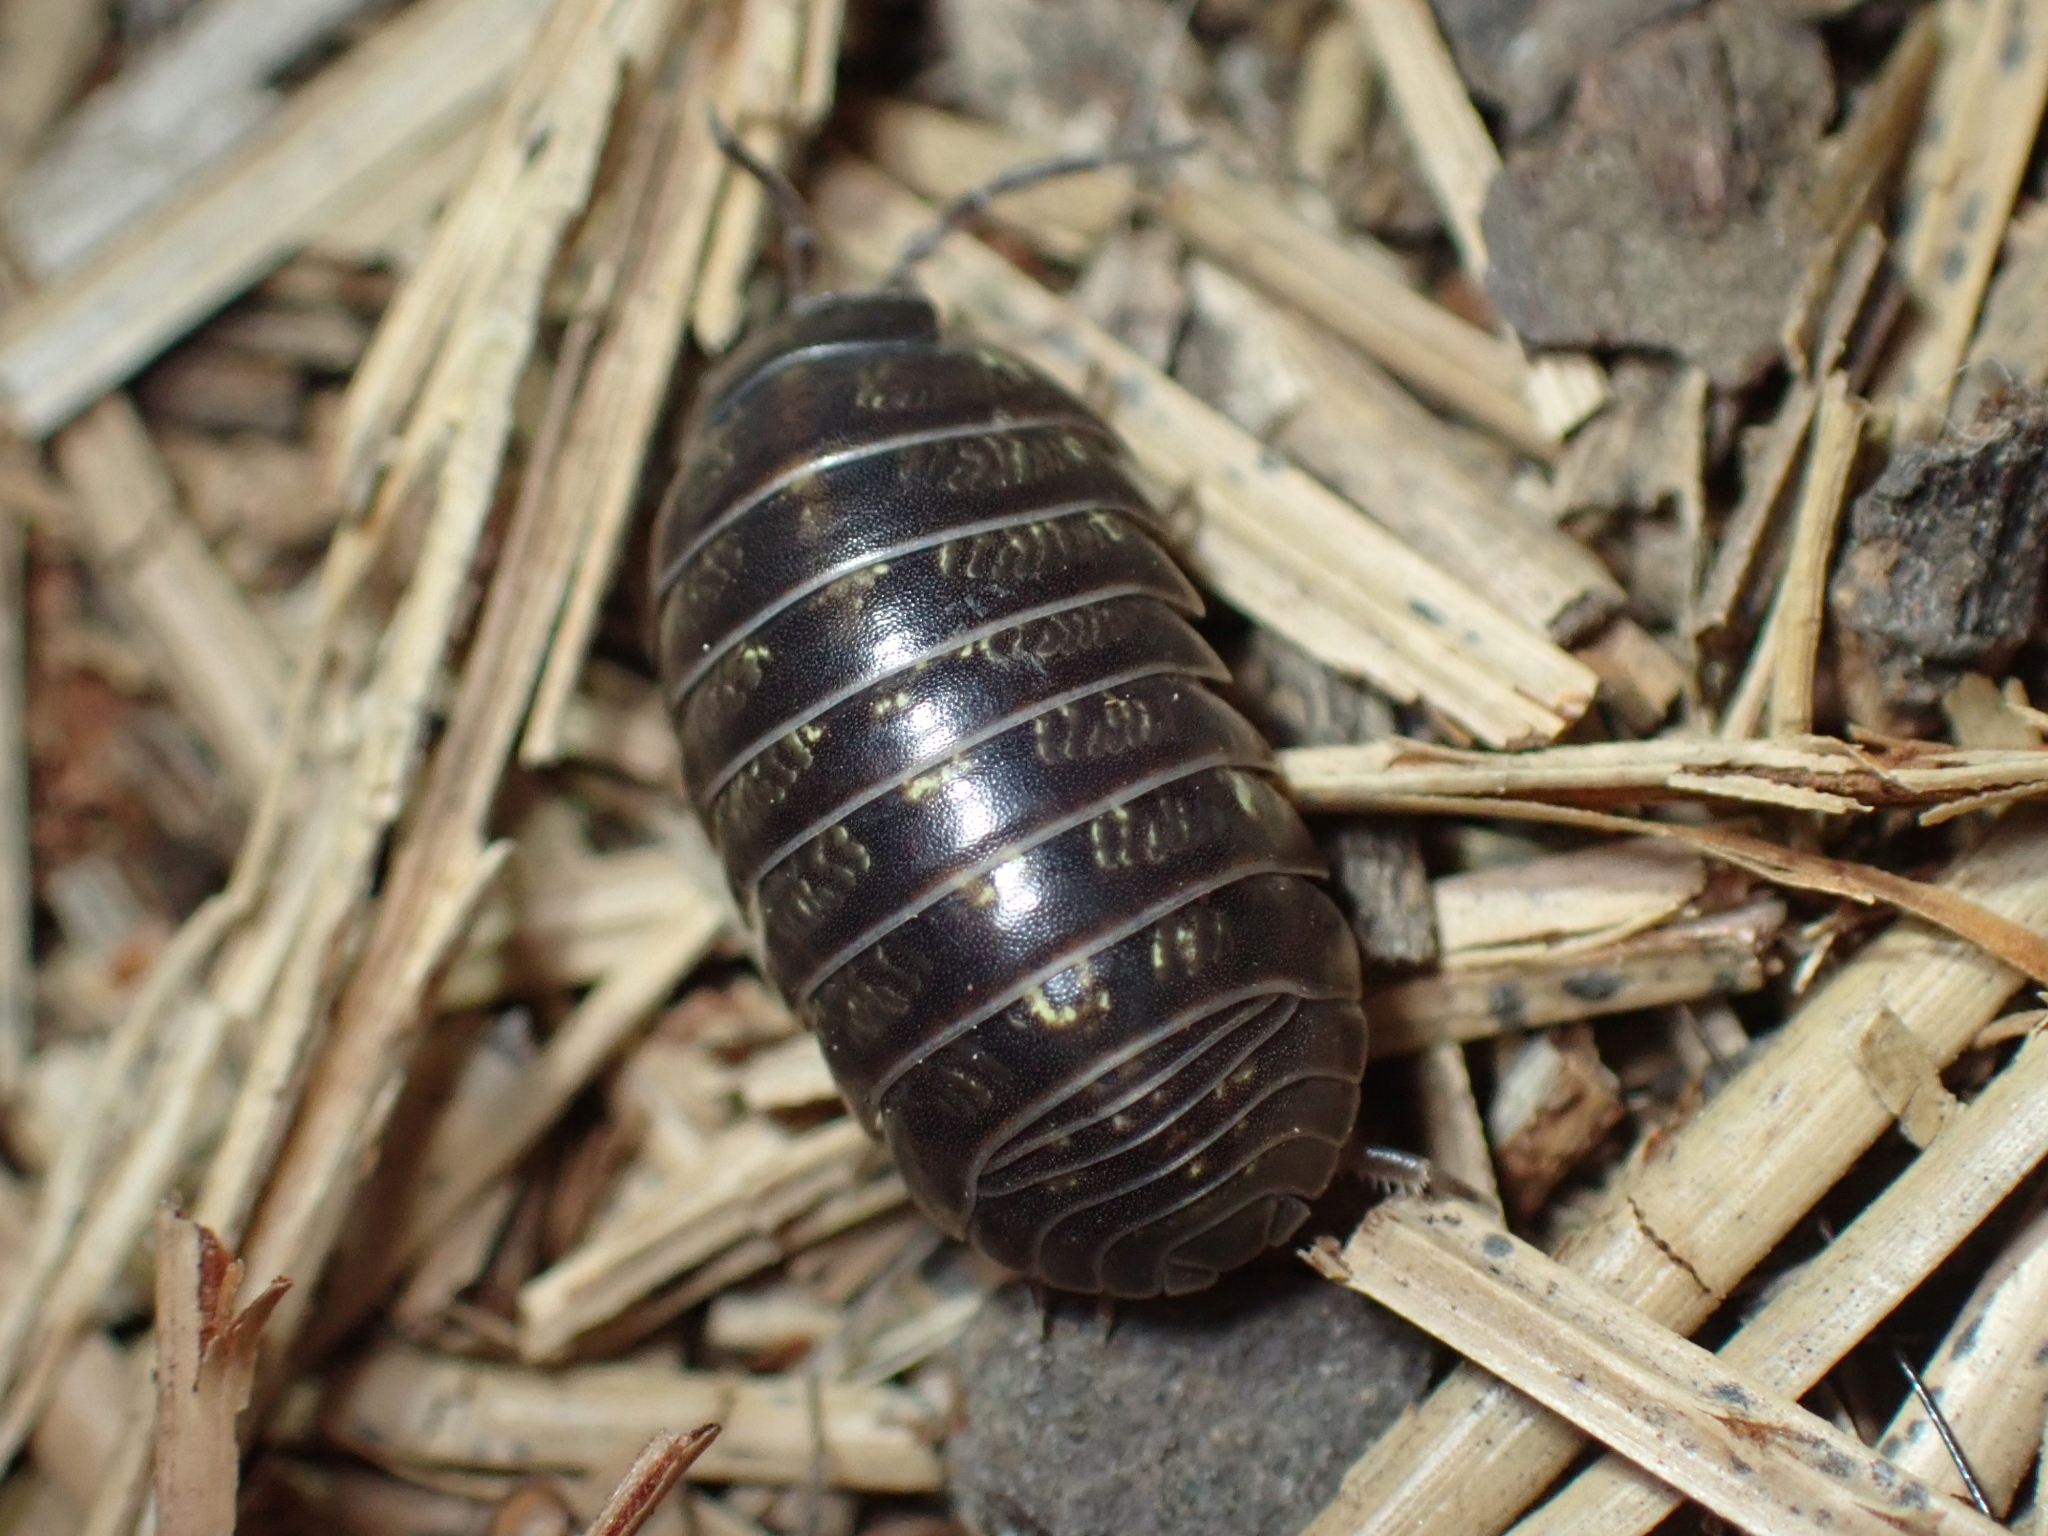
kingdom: Animalia
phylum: Arthropoda
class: Malacostraca
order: Isopoda
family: Armadillidiidae
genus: Armadillidium
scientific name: Armadillidium vulgare
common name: Common pill woodlouse
